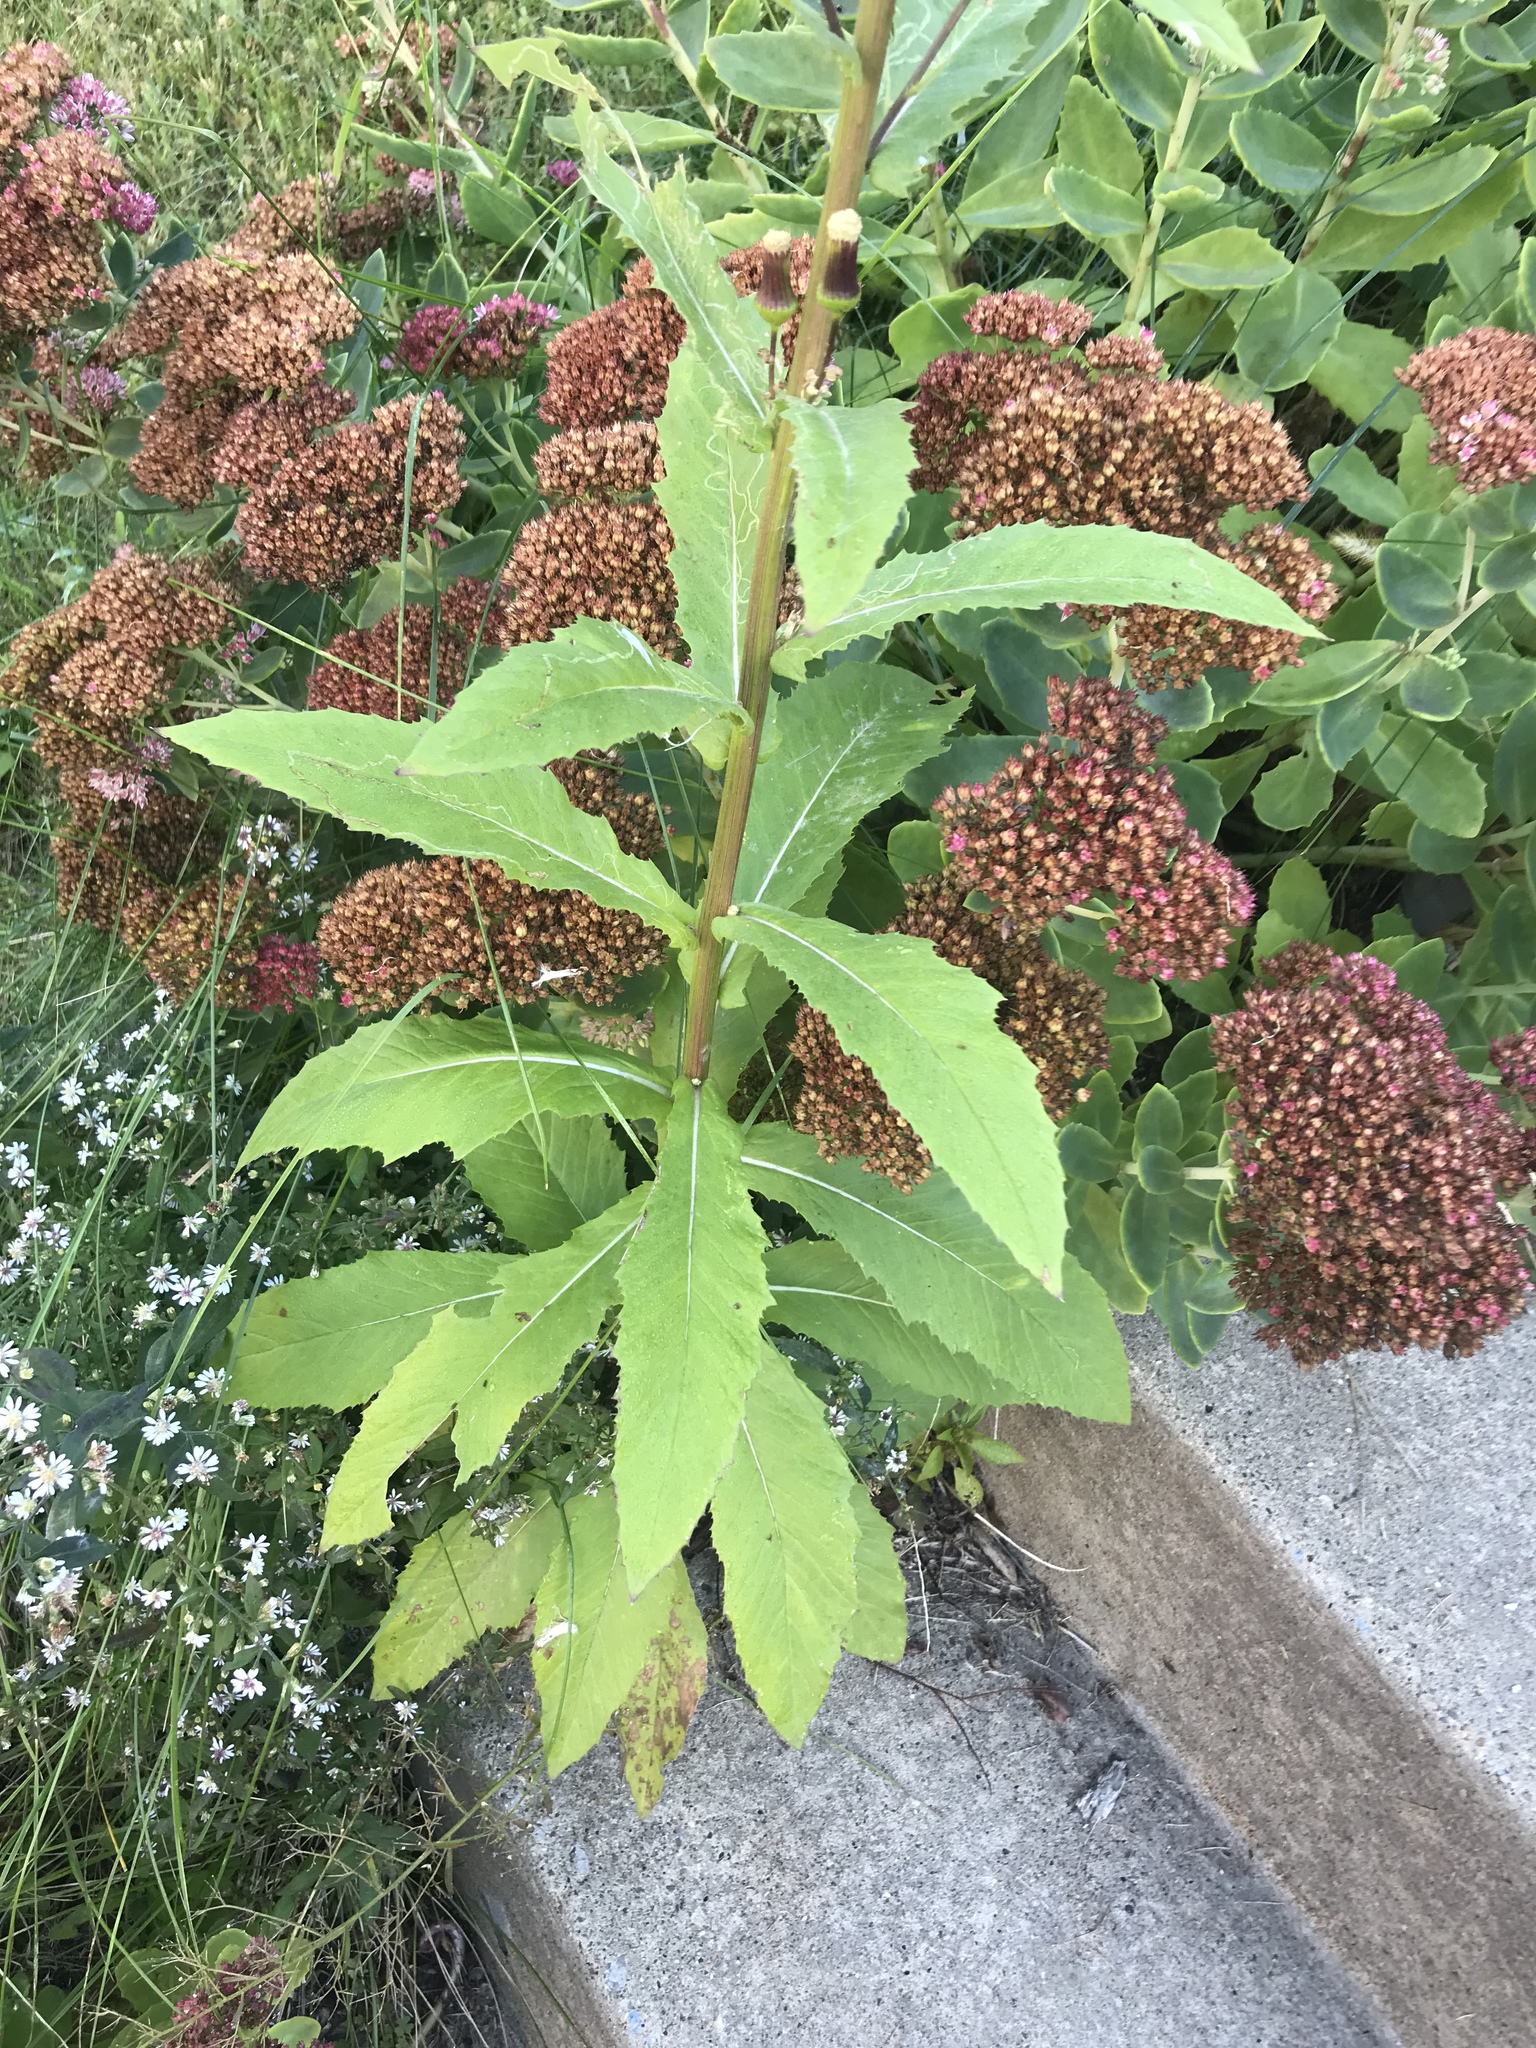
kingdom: Plantae
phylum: Tracheophyta
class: Magnoliopsida
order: Asterales
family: Asteraceae
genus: Erechtites
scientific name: Erechtites hieraciifolius
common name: American burnweed
